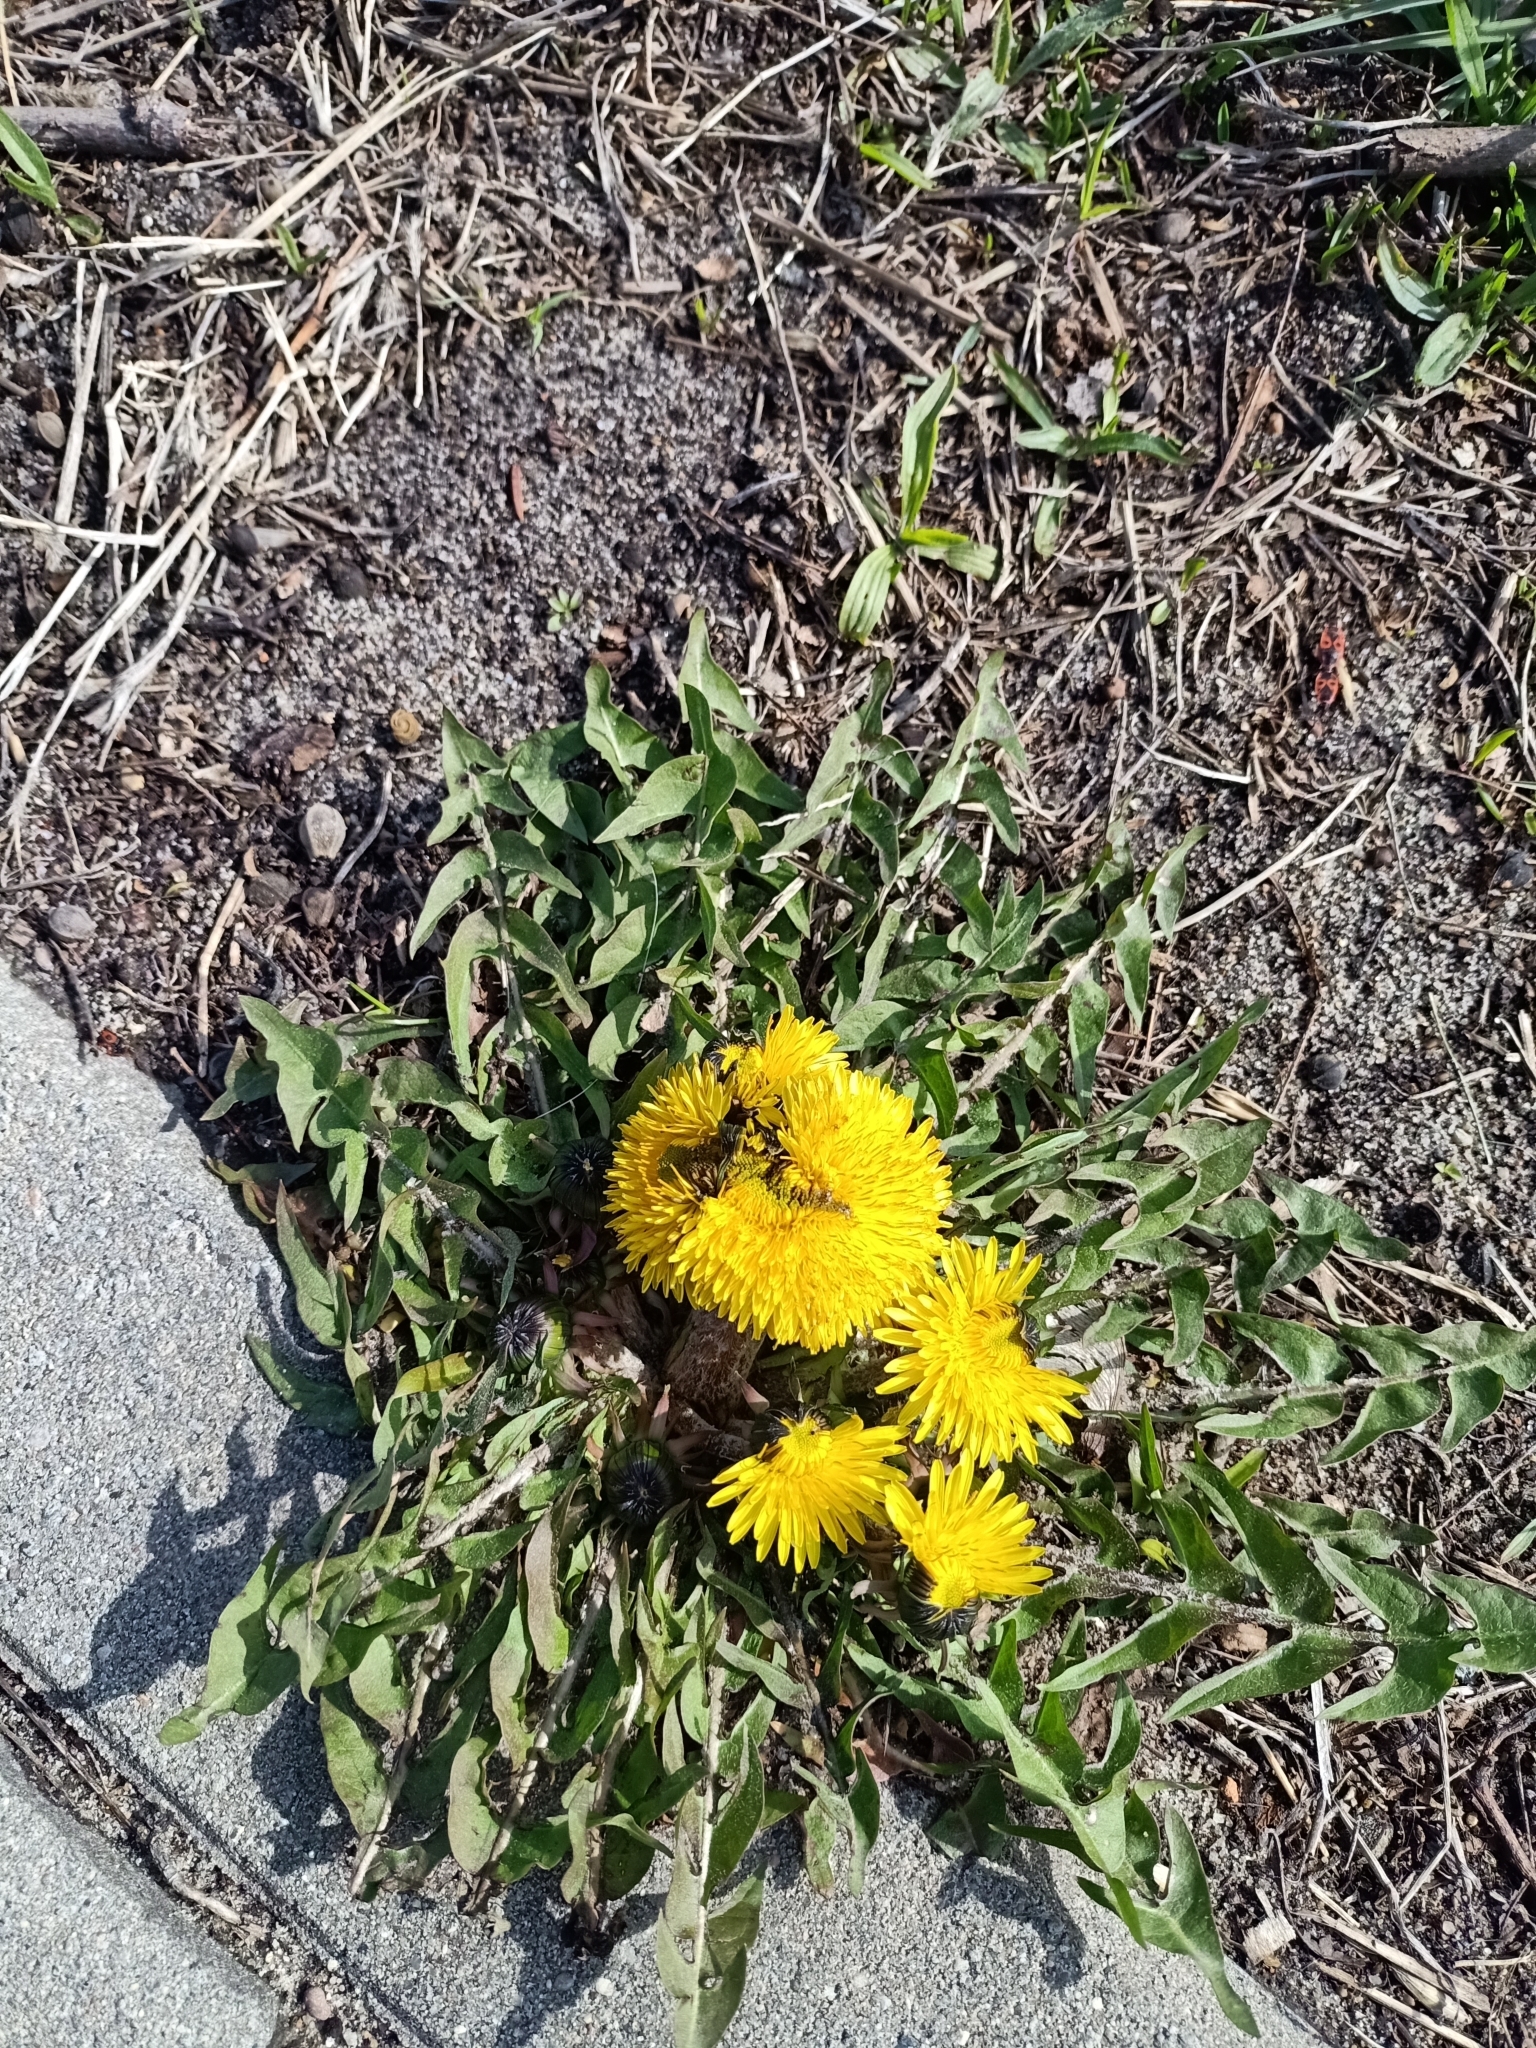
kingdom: Plantae
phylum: Tracheophyta
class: Magnoliopsida
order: Asterales
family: Asteraceae
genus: Taraxacum
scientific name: Taraxacum officinale
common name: Common dandelion
